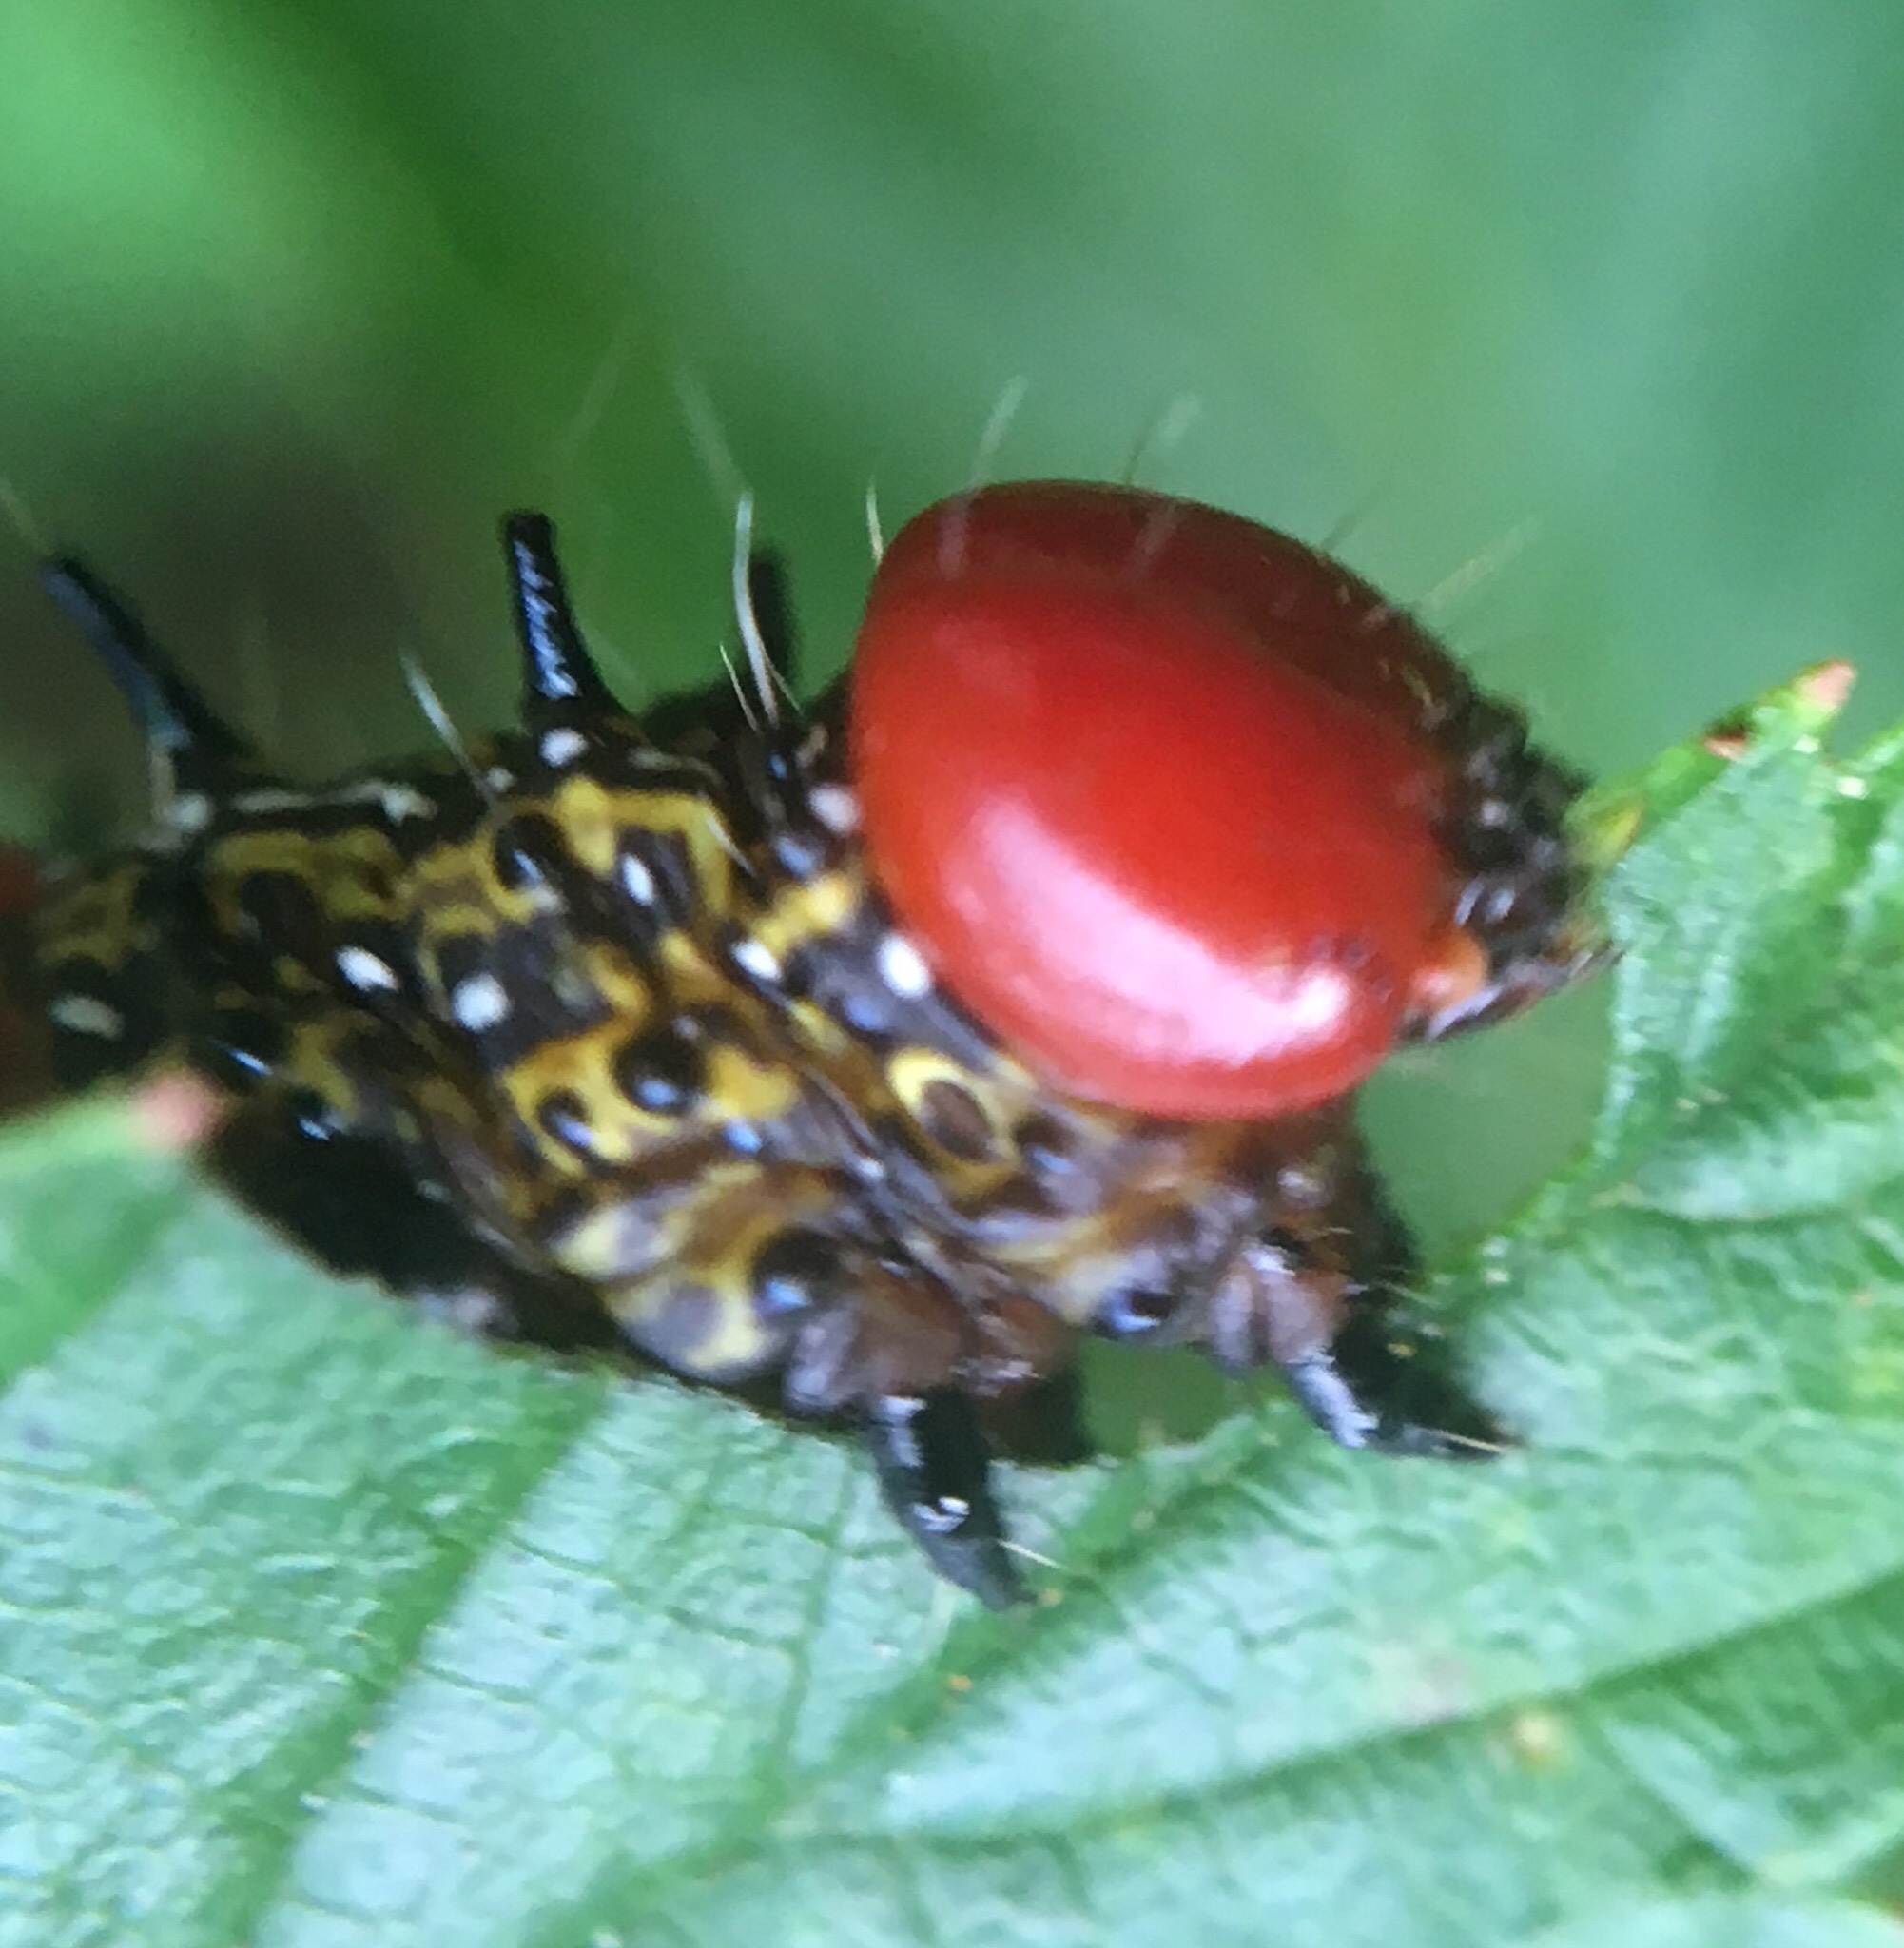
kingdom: Animalia
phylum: Arthropoda
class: Insecta
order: Lepidoptera
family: Notodontidae
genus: Schizura
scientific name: Schizura
